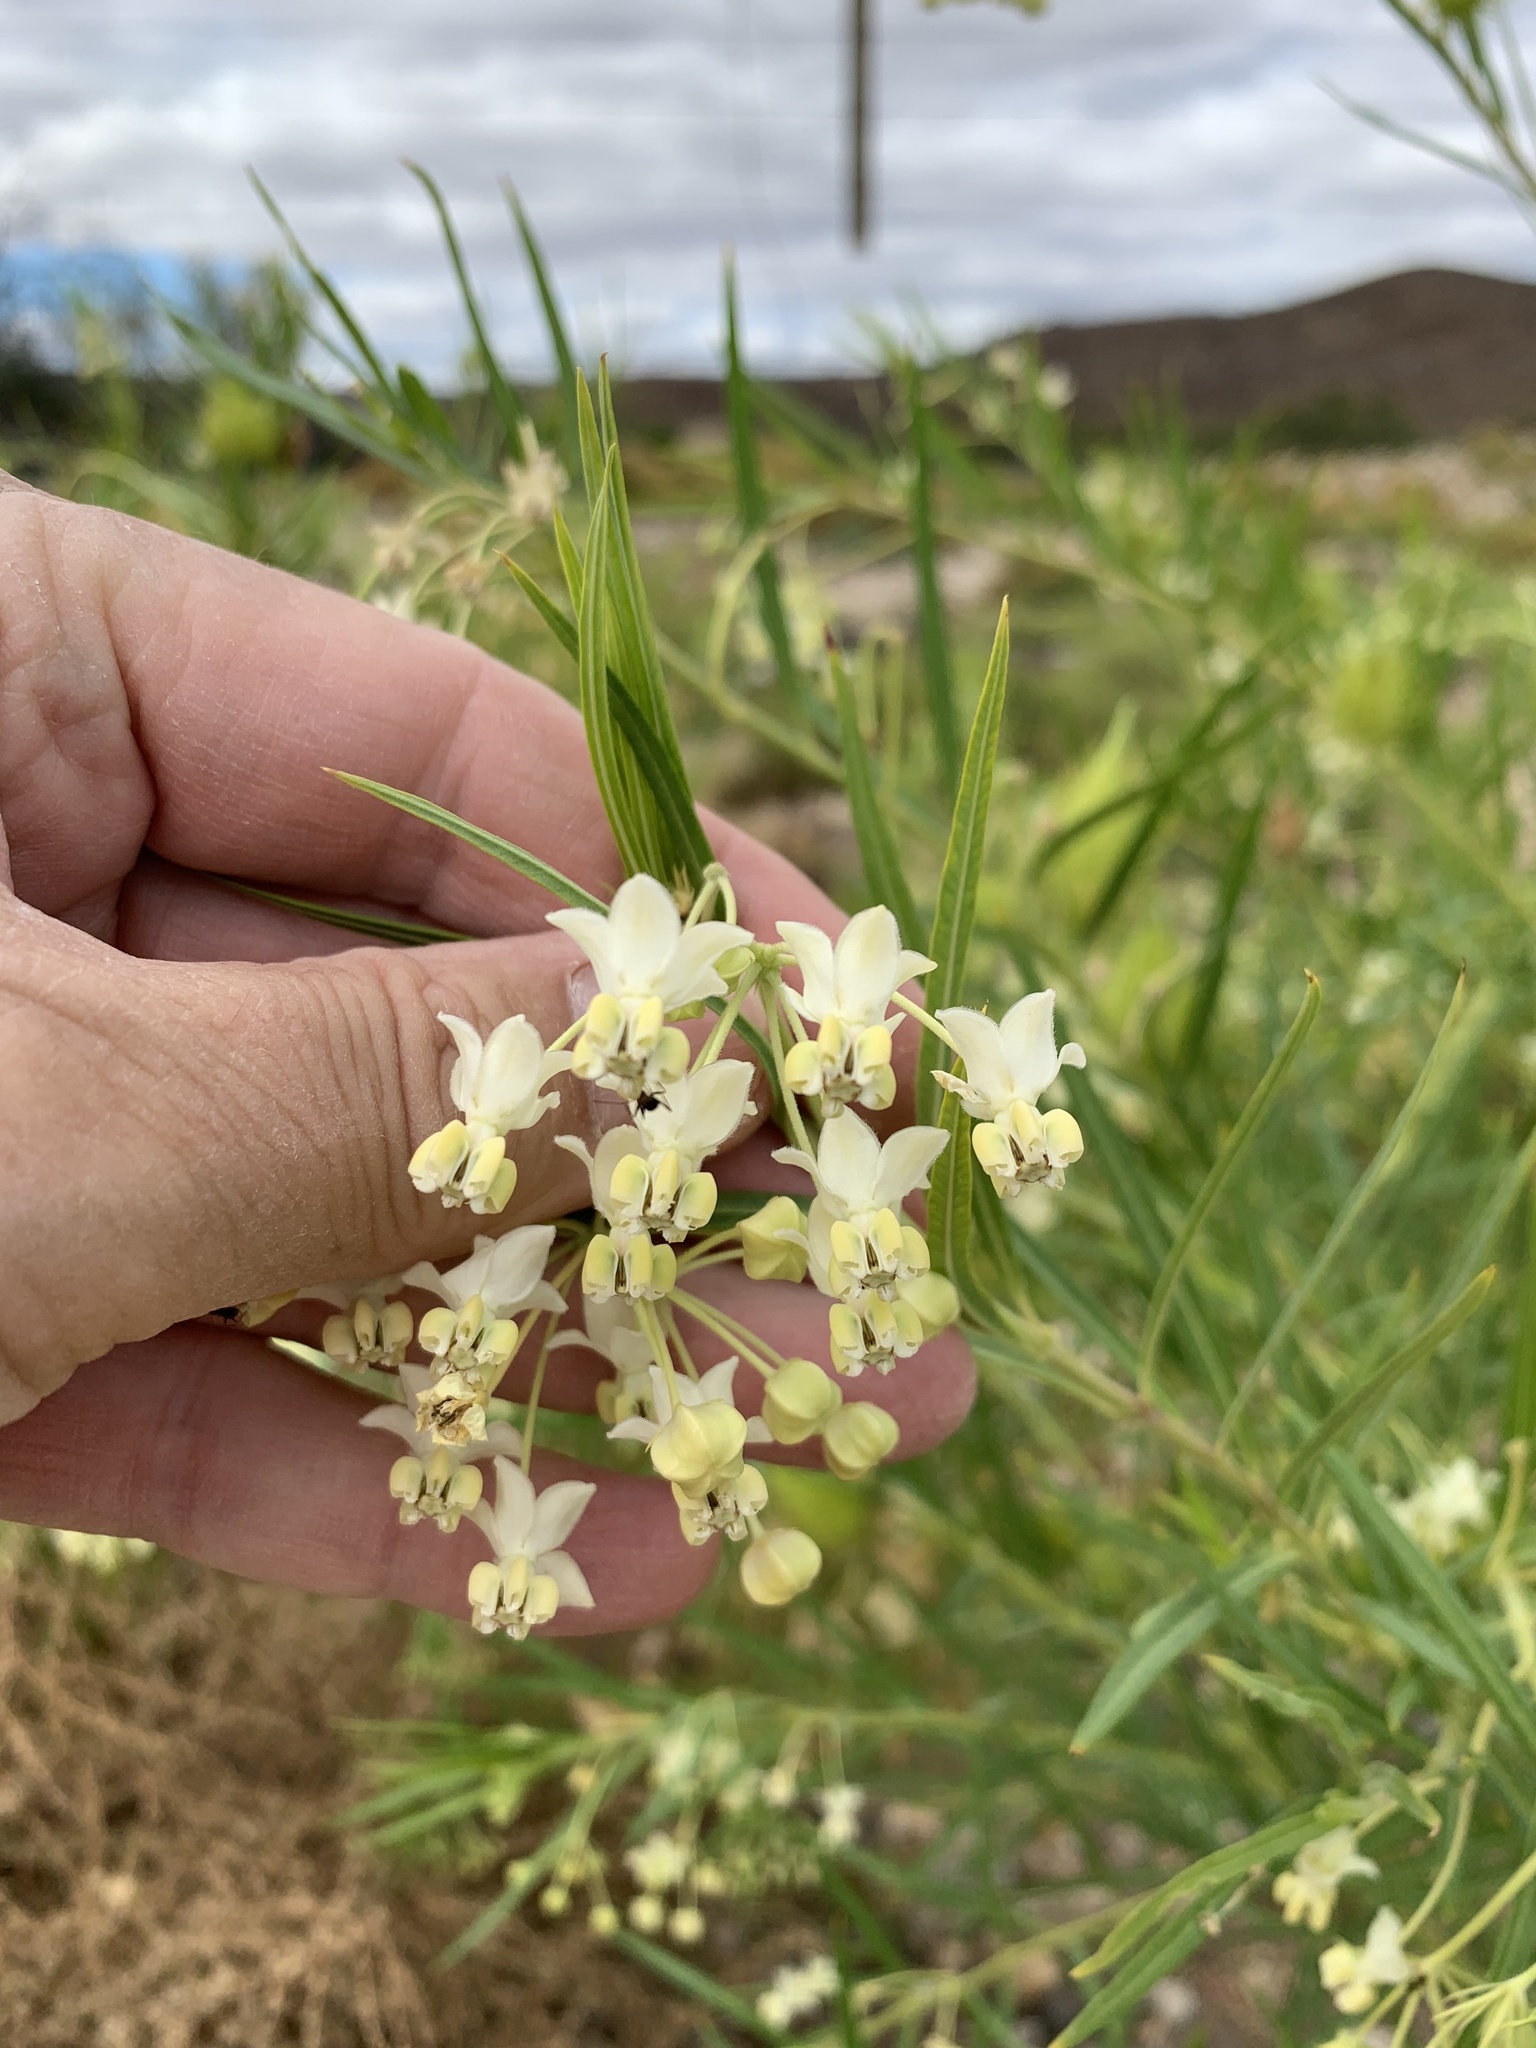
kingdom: Plantae
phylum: Tracheophyta
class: Magnoliopsida
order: Gentianales
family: Apocynaceae
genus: Gomphocarpus
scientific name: Gomphocarpus fruticosus
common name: Milkweed
